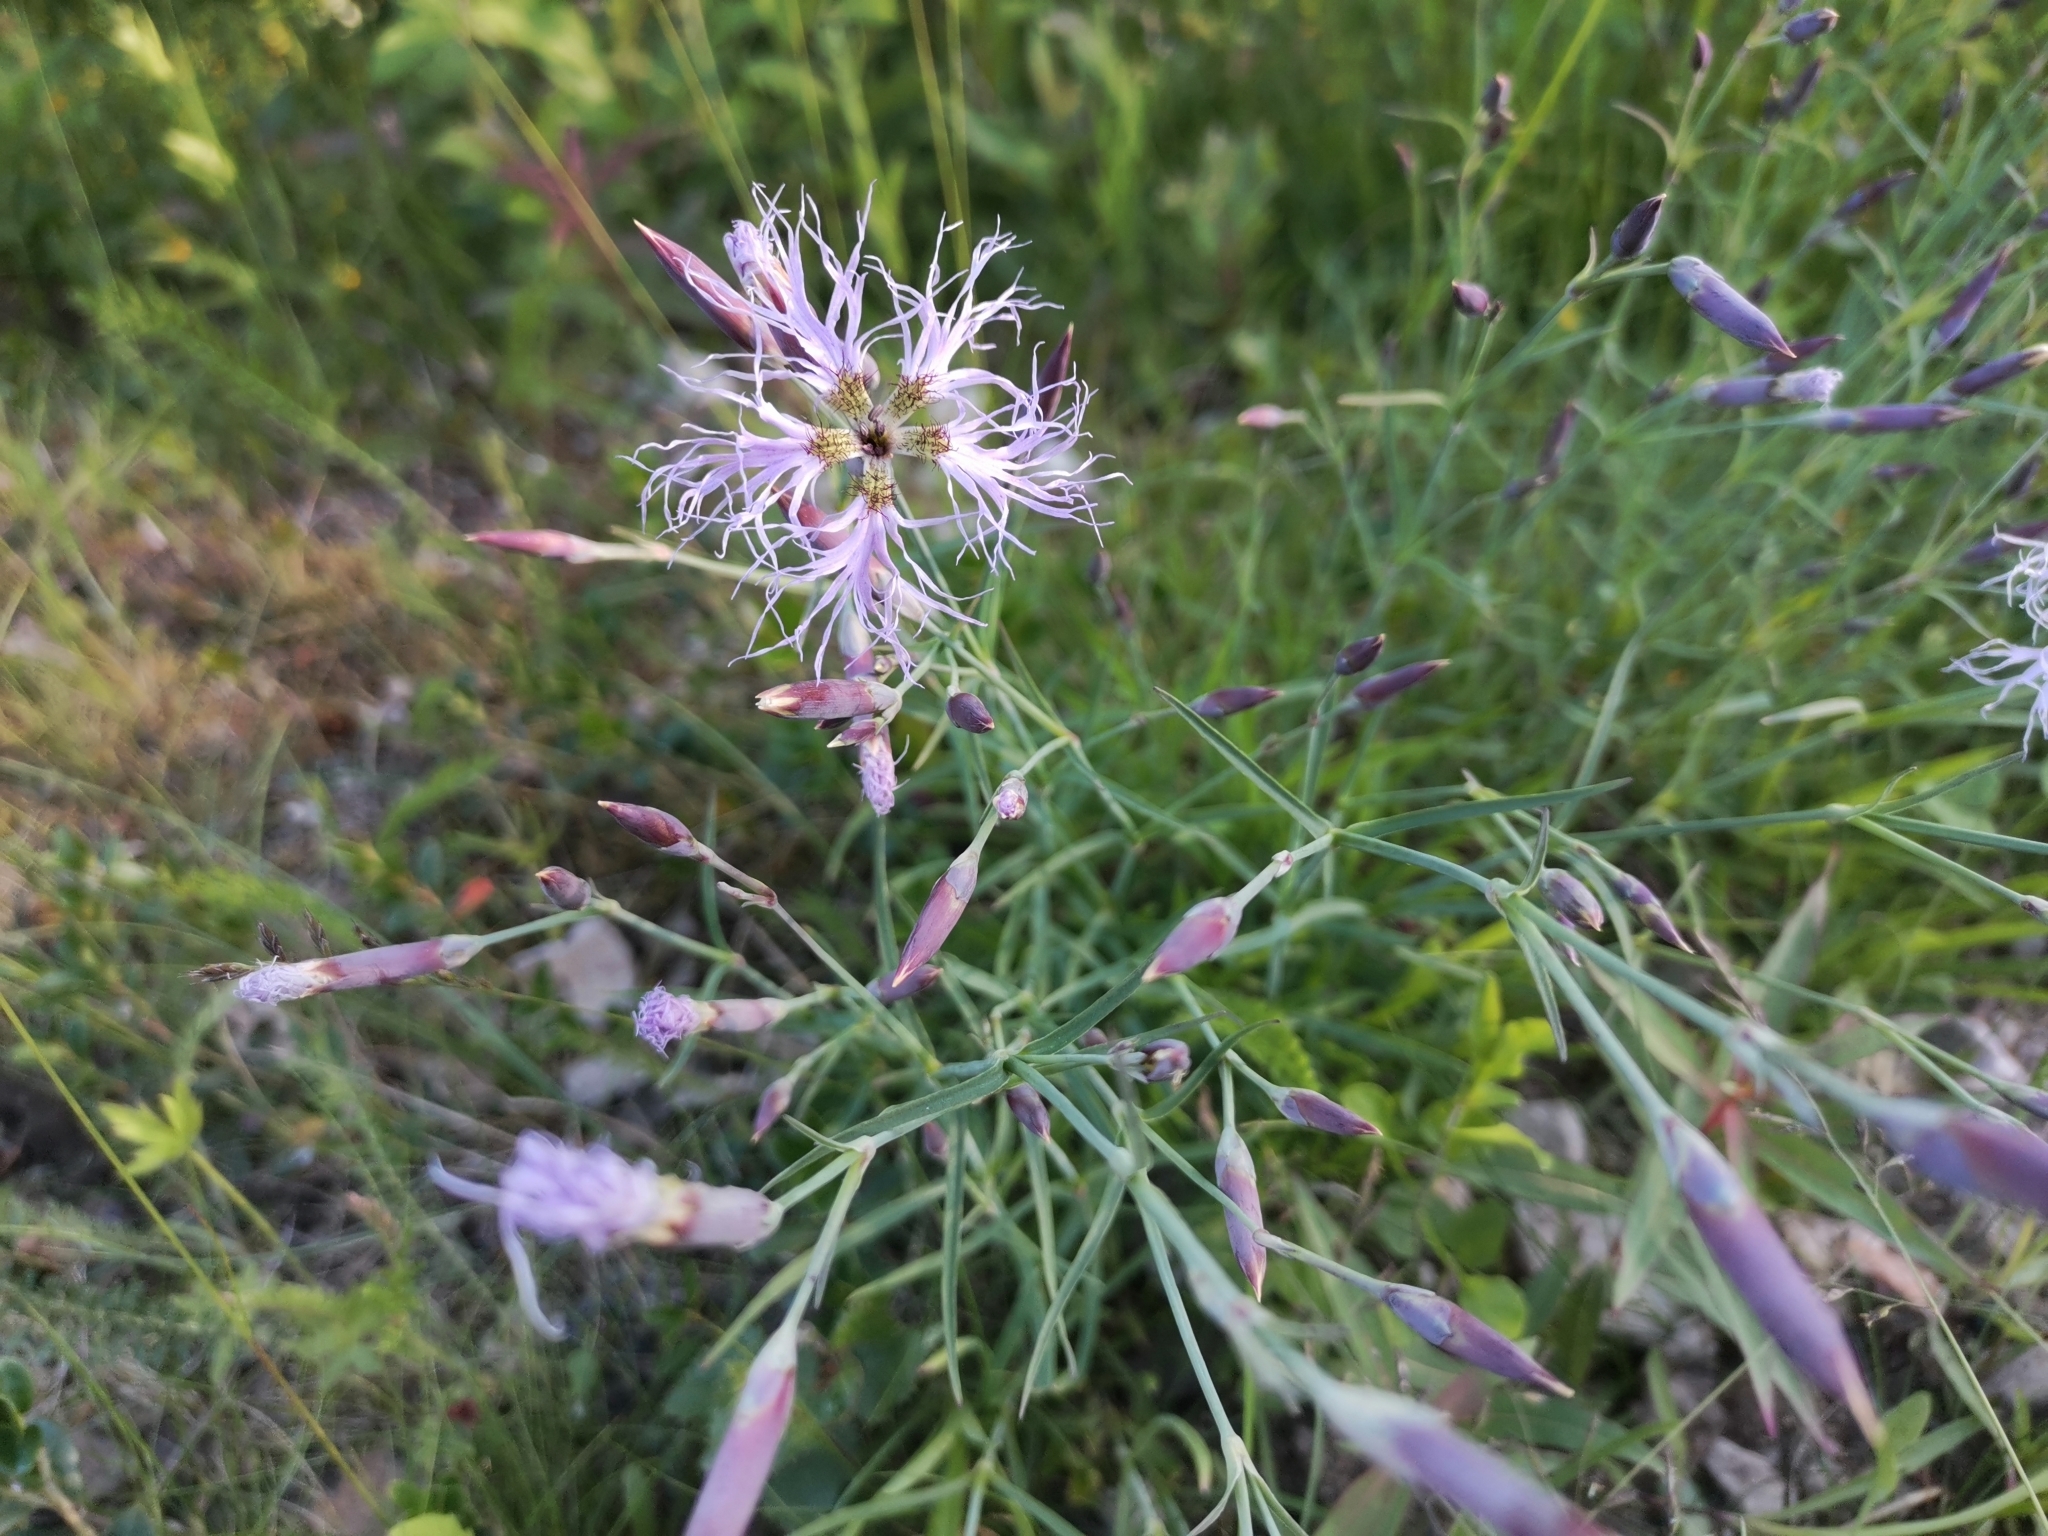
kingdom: Plantae
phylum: Tracheophyta
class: Magnoliopsida
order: Caryophyllales
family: Caryophyllaceae
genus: Dianthus
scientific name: Dianthus superbus
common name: Fringed pink
